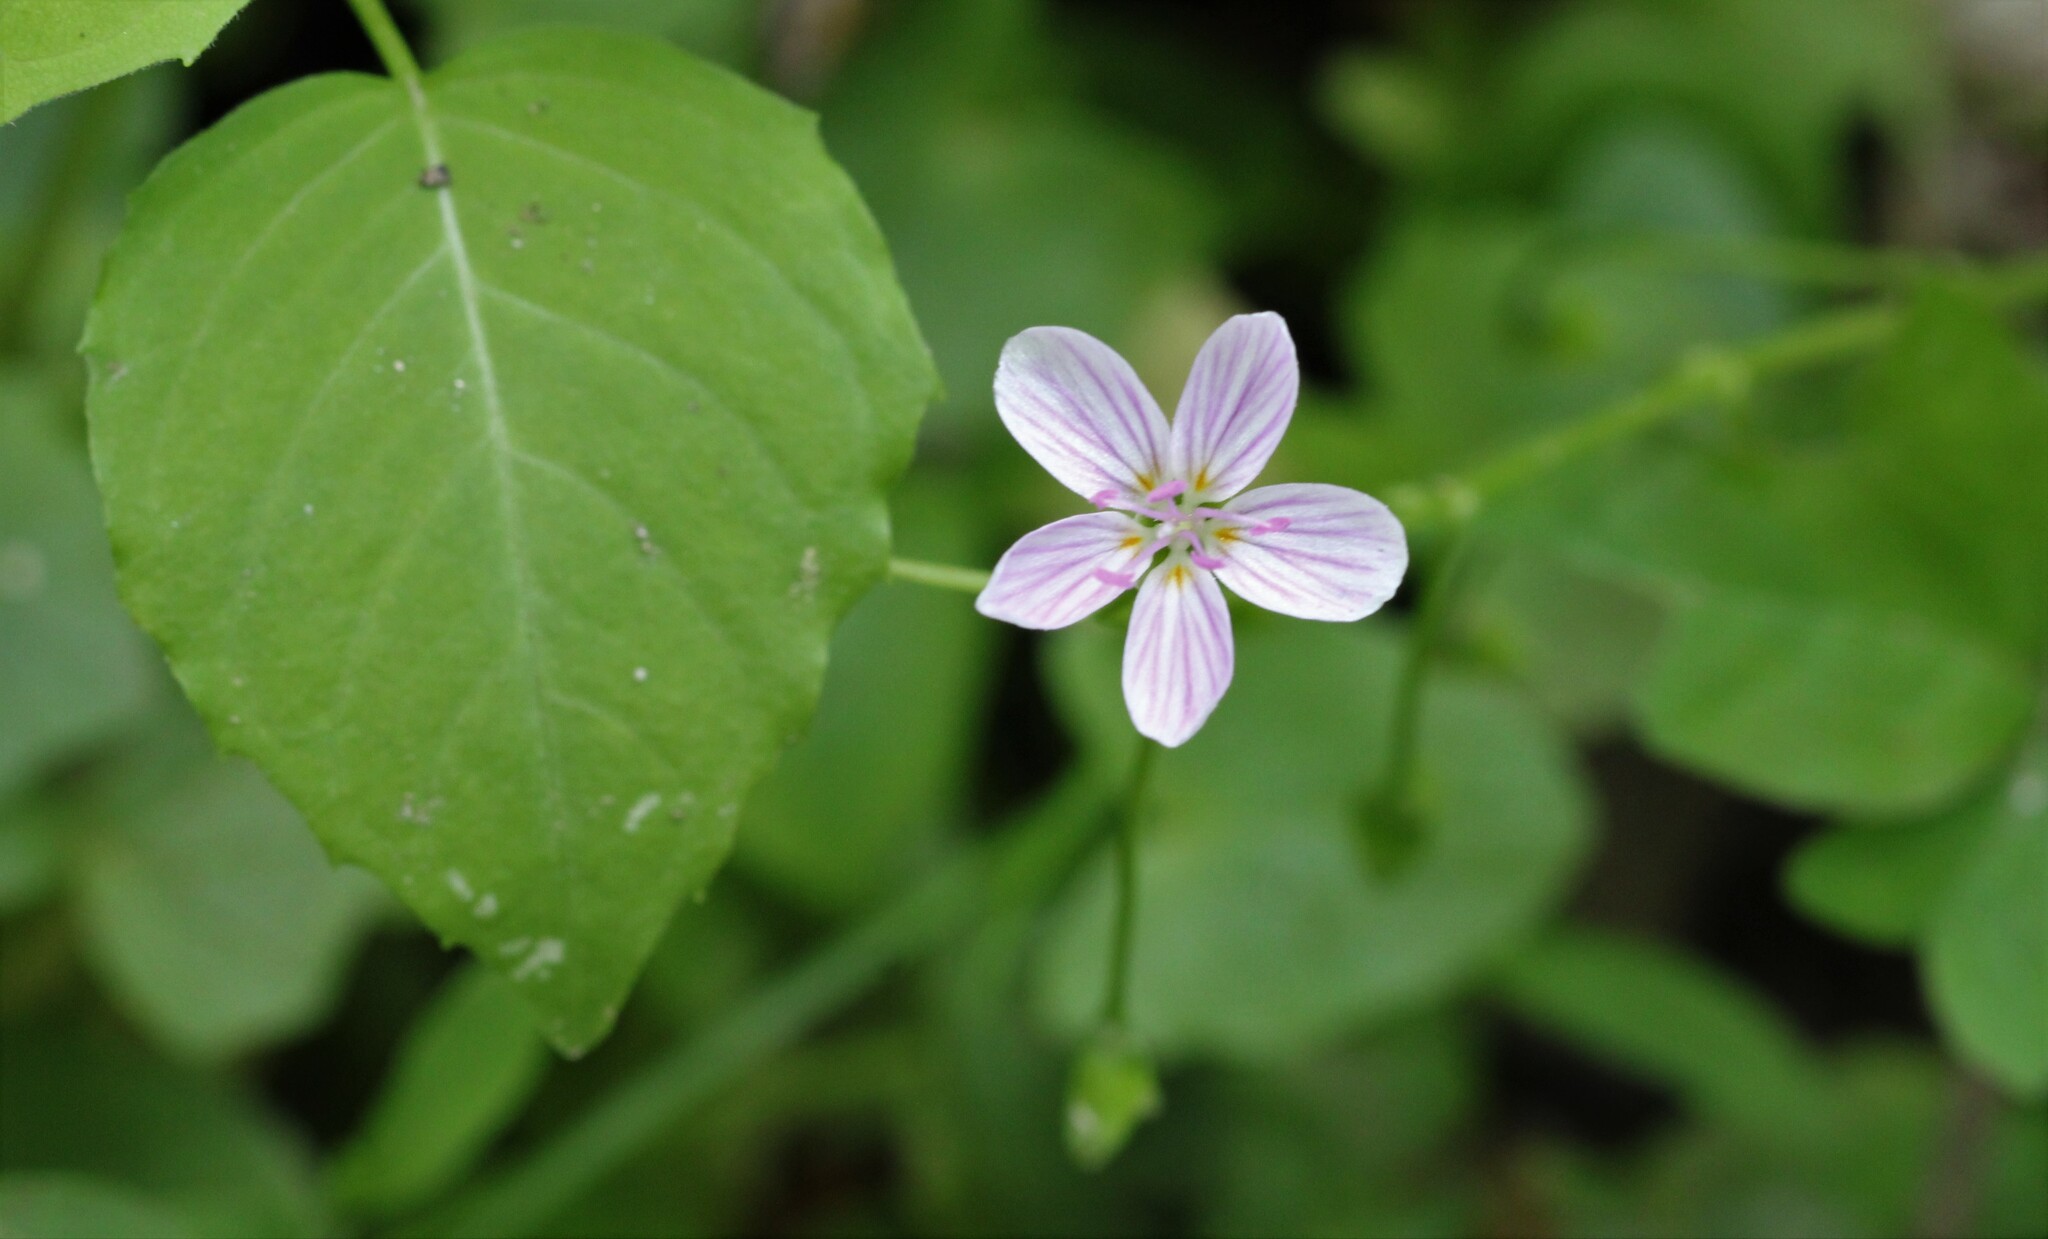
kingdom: Plantae
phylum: Tracheophyta
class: Magnoliopsida
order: Caryophyllales
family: Montiaceae
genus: Claytonia
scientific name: Claytonia virginica
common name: Virginia springbeauty
